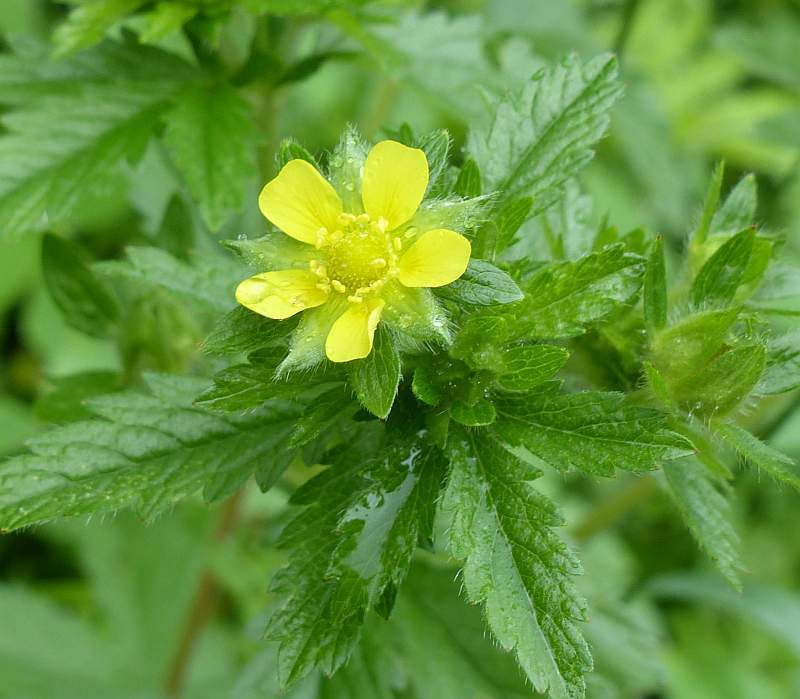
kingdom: Plantae
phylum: Tracheophyta
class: Magnoliopsida
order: Rosales
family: Rosaceae
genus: Potentilla
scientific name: Potentilla norvegica
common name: Ternate-leaved cinquefoil
